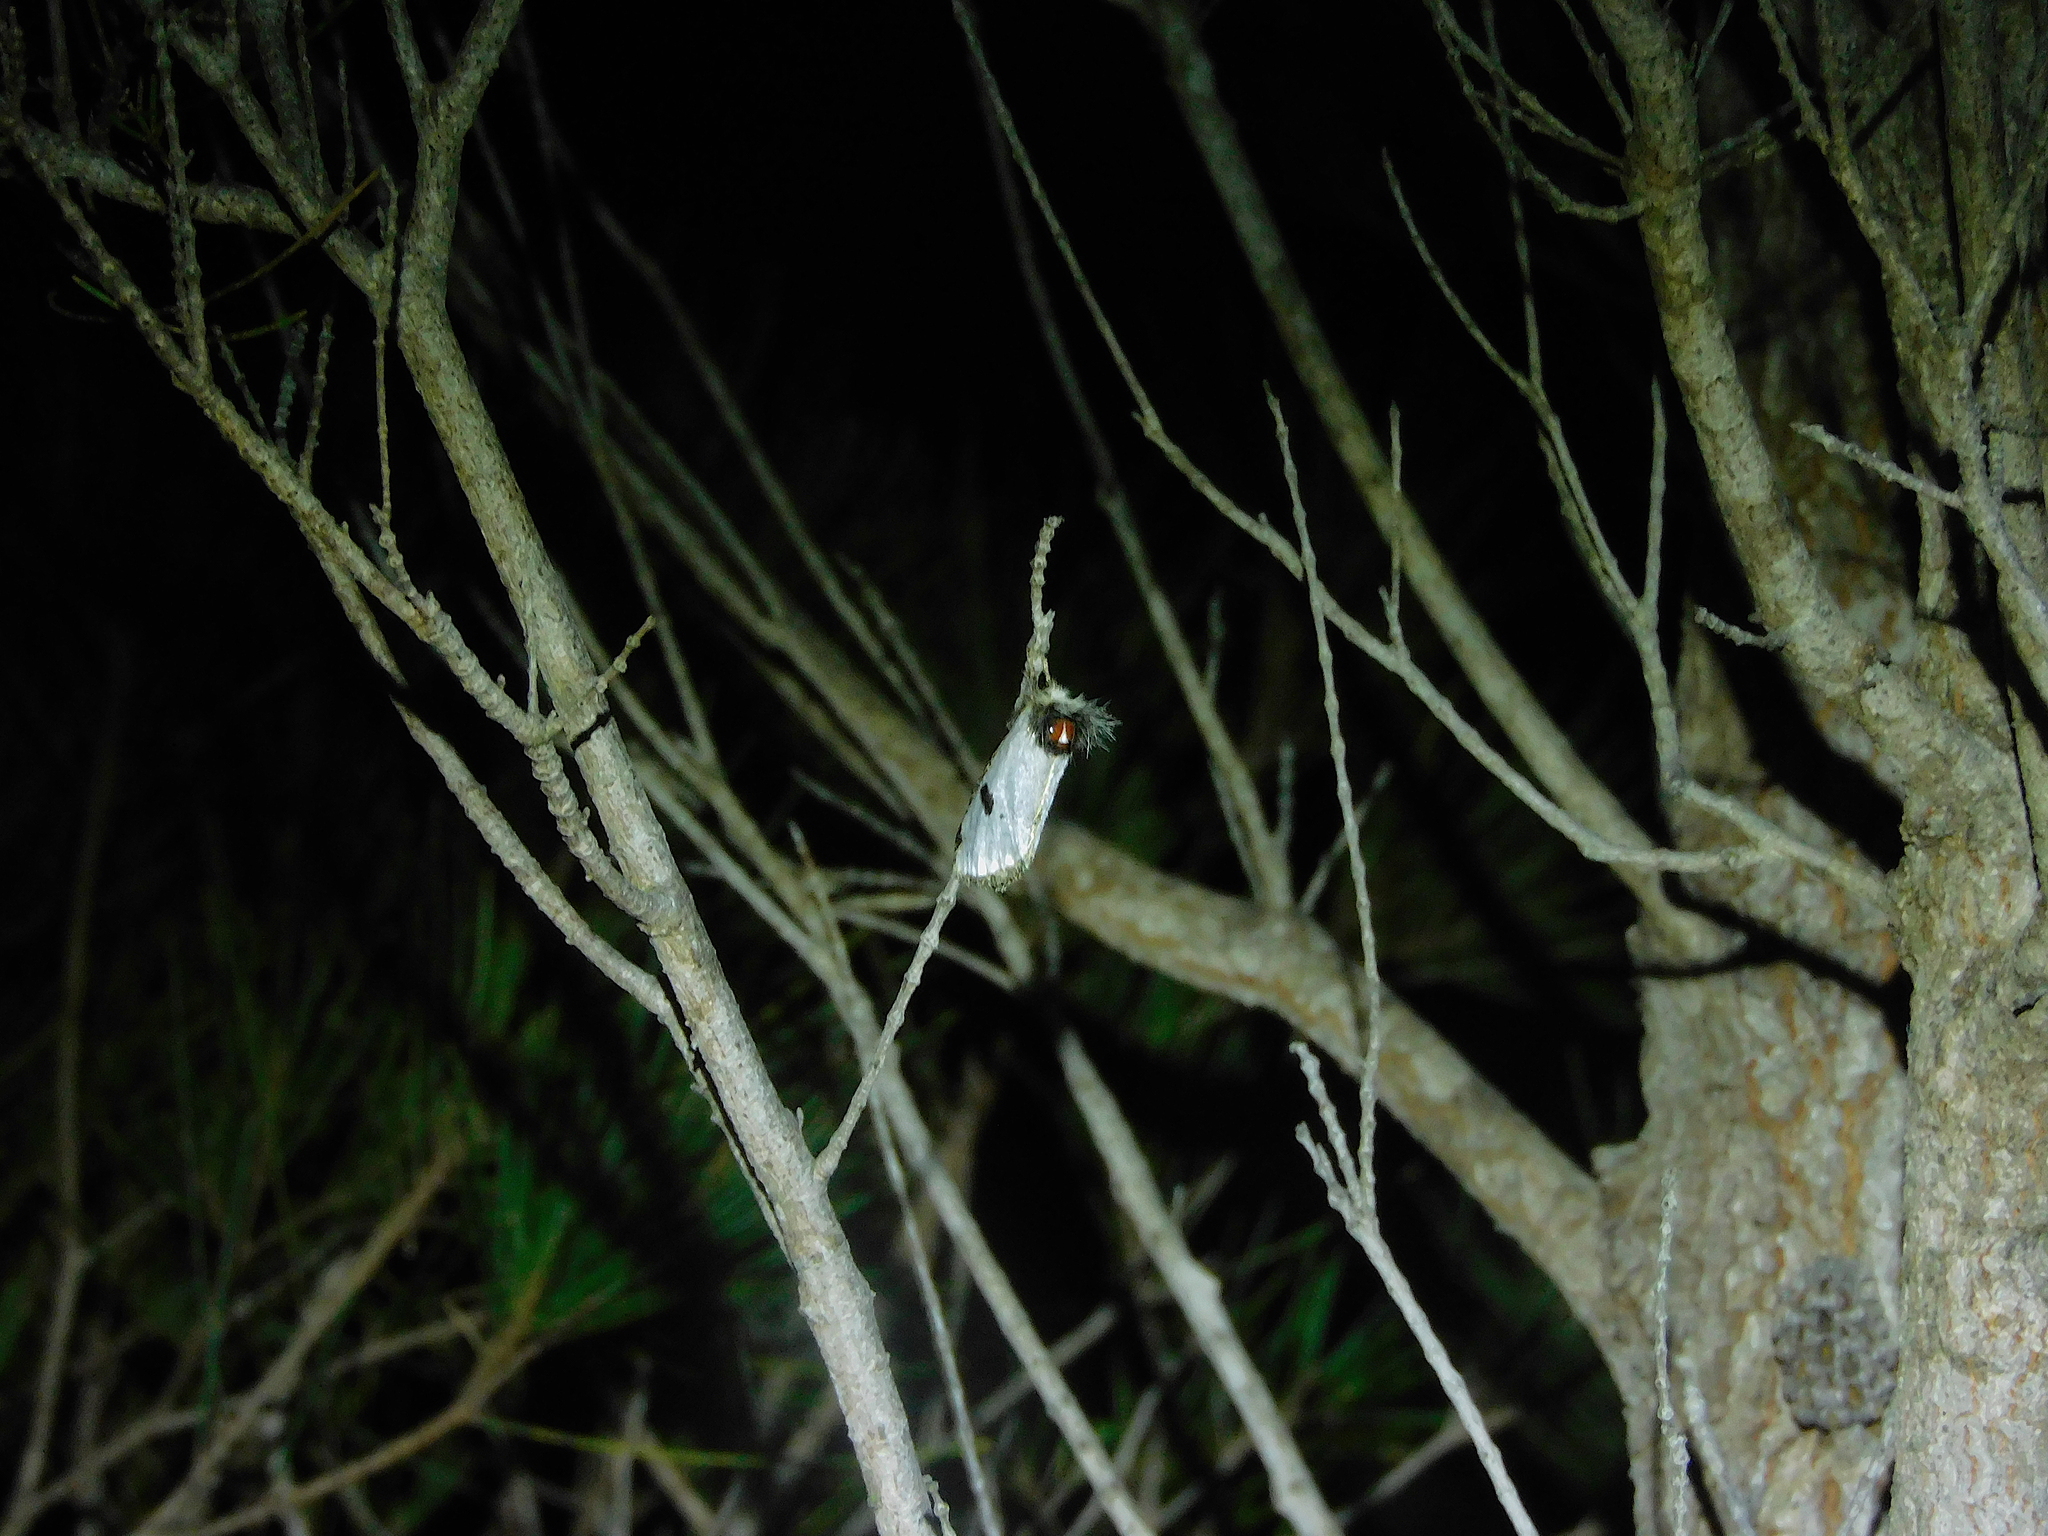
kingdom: Animalia
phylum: Arthropoda
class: Insecta
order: Lepidoptera
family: Notodontidae
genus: Epicoma
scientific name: Epicoma melanospila
